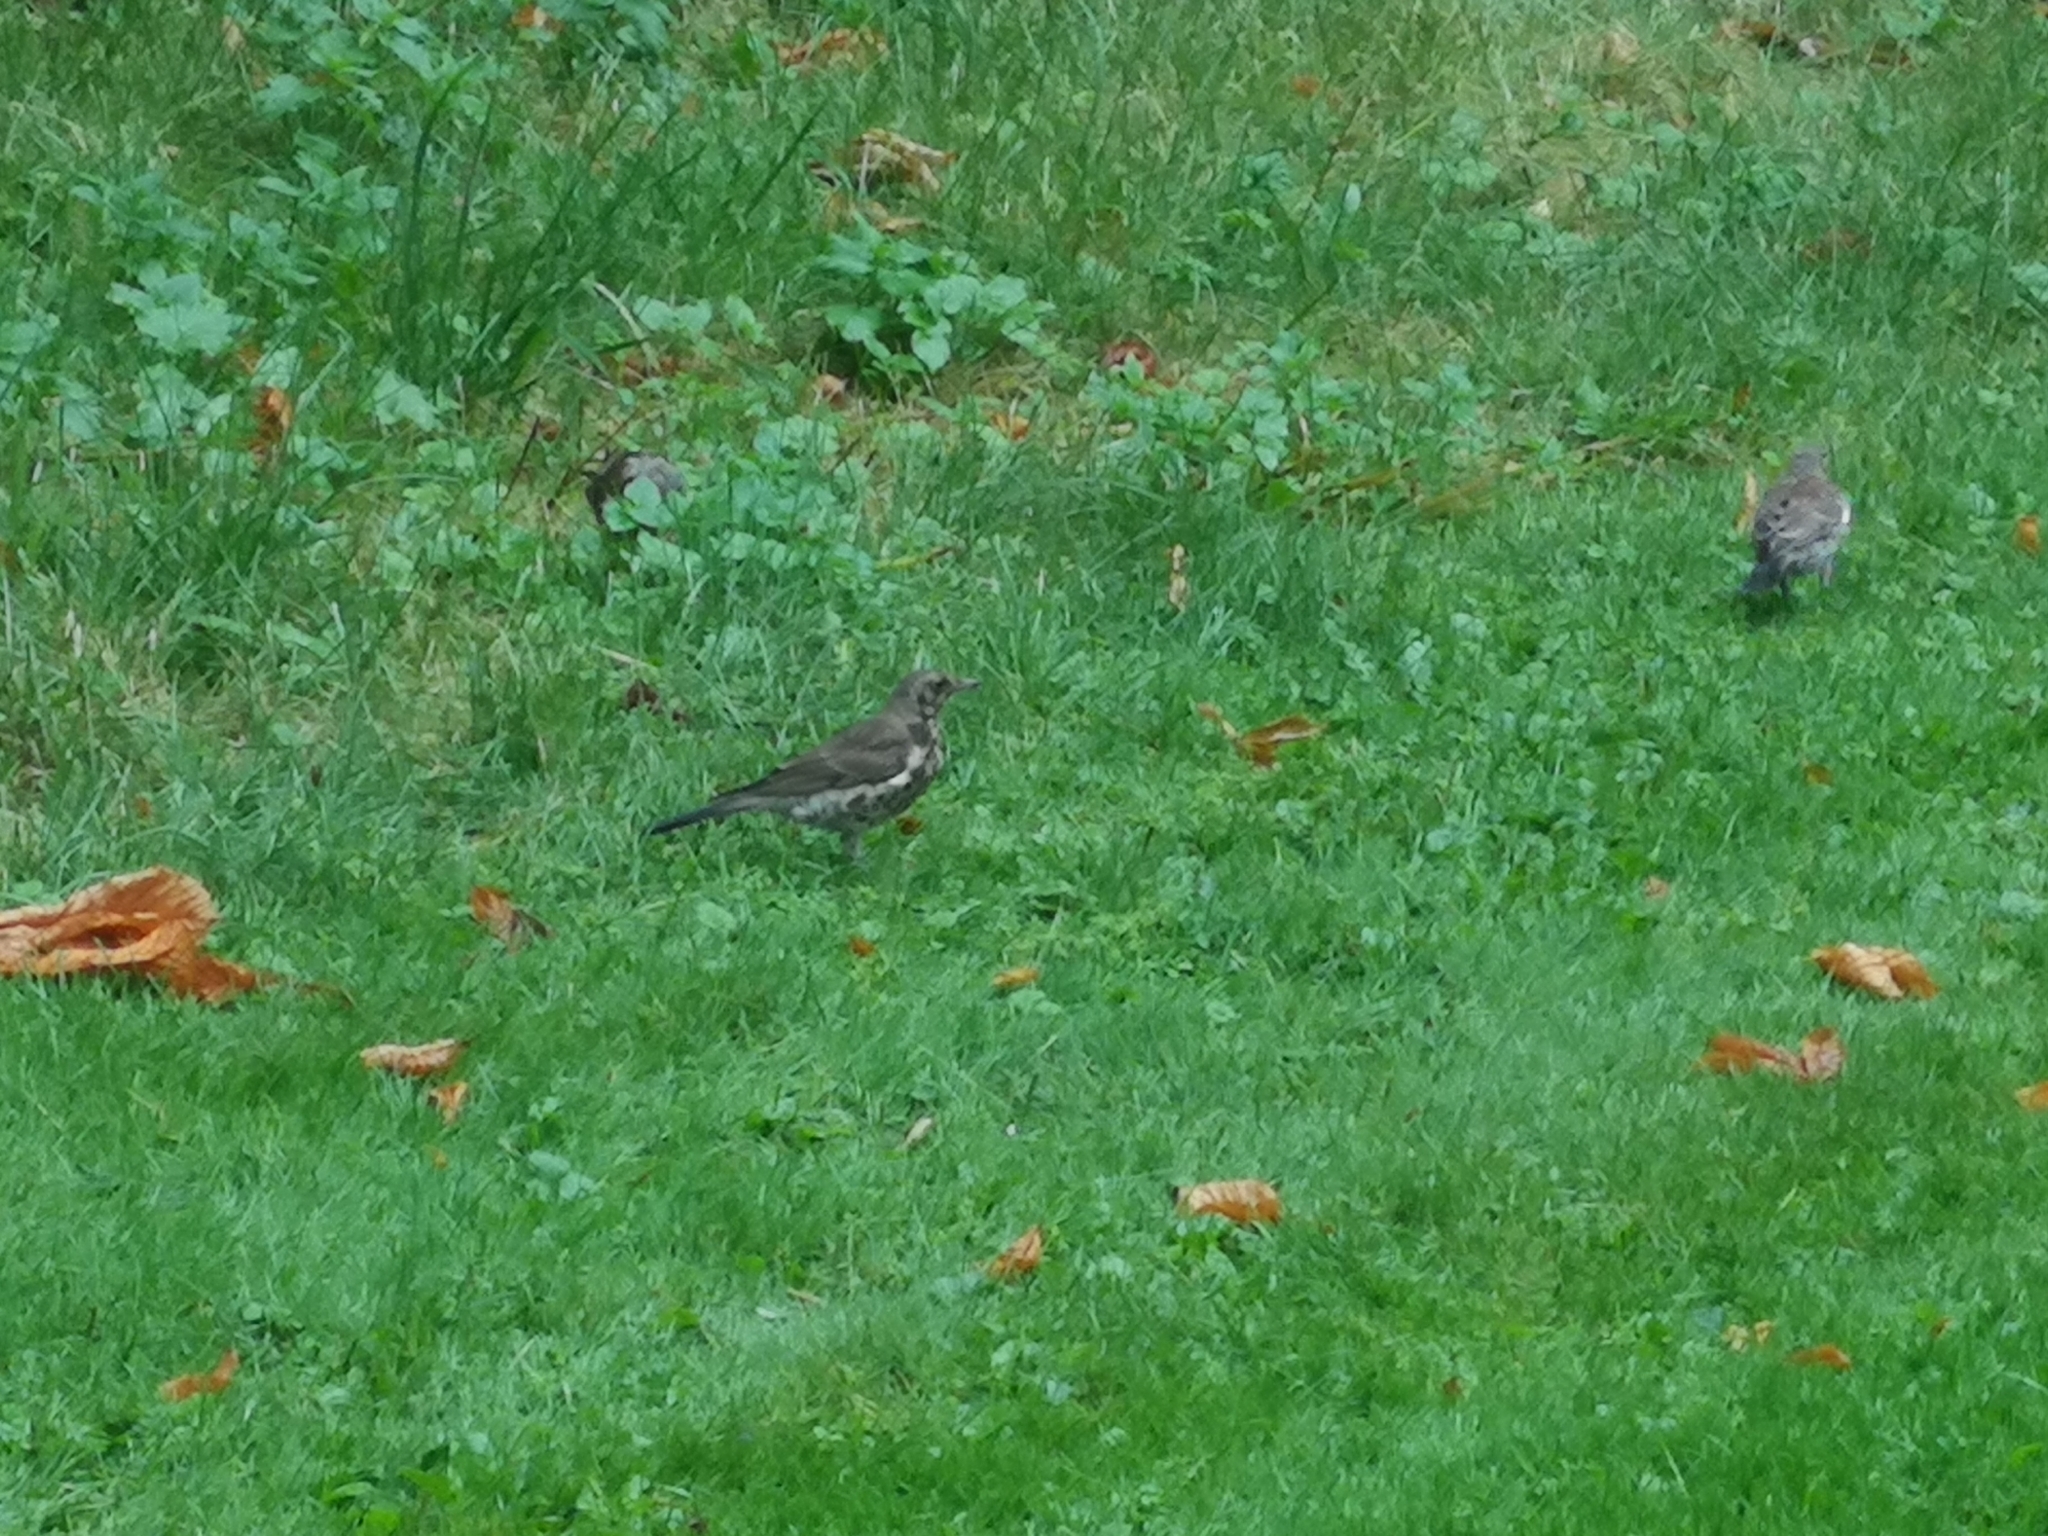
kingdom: Animalia
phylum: Chordata
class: Aves
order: Passeriformes
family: Turdidae
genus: Turdus
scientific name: Turdus pilaris
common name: Fieldfare
